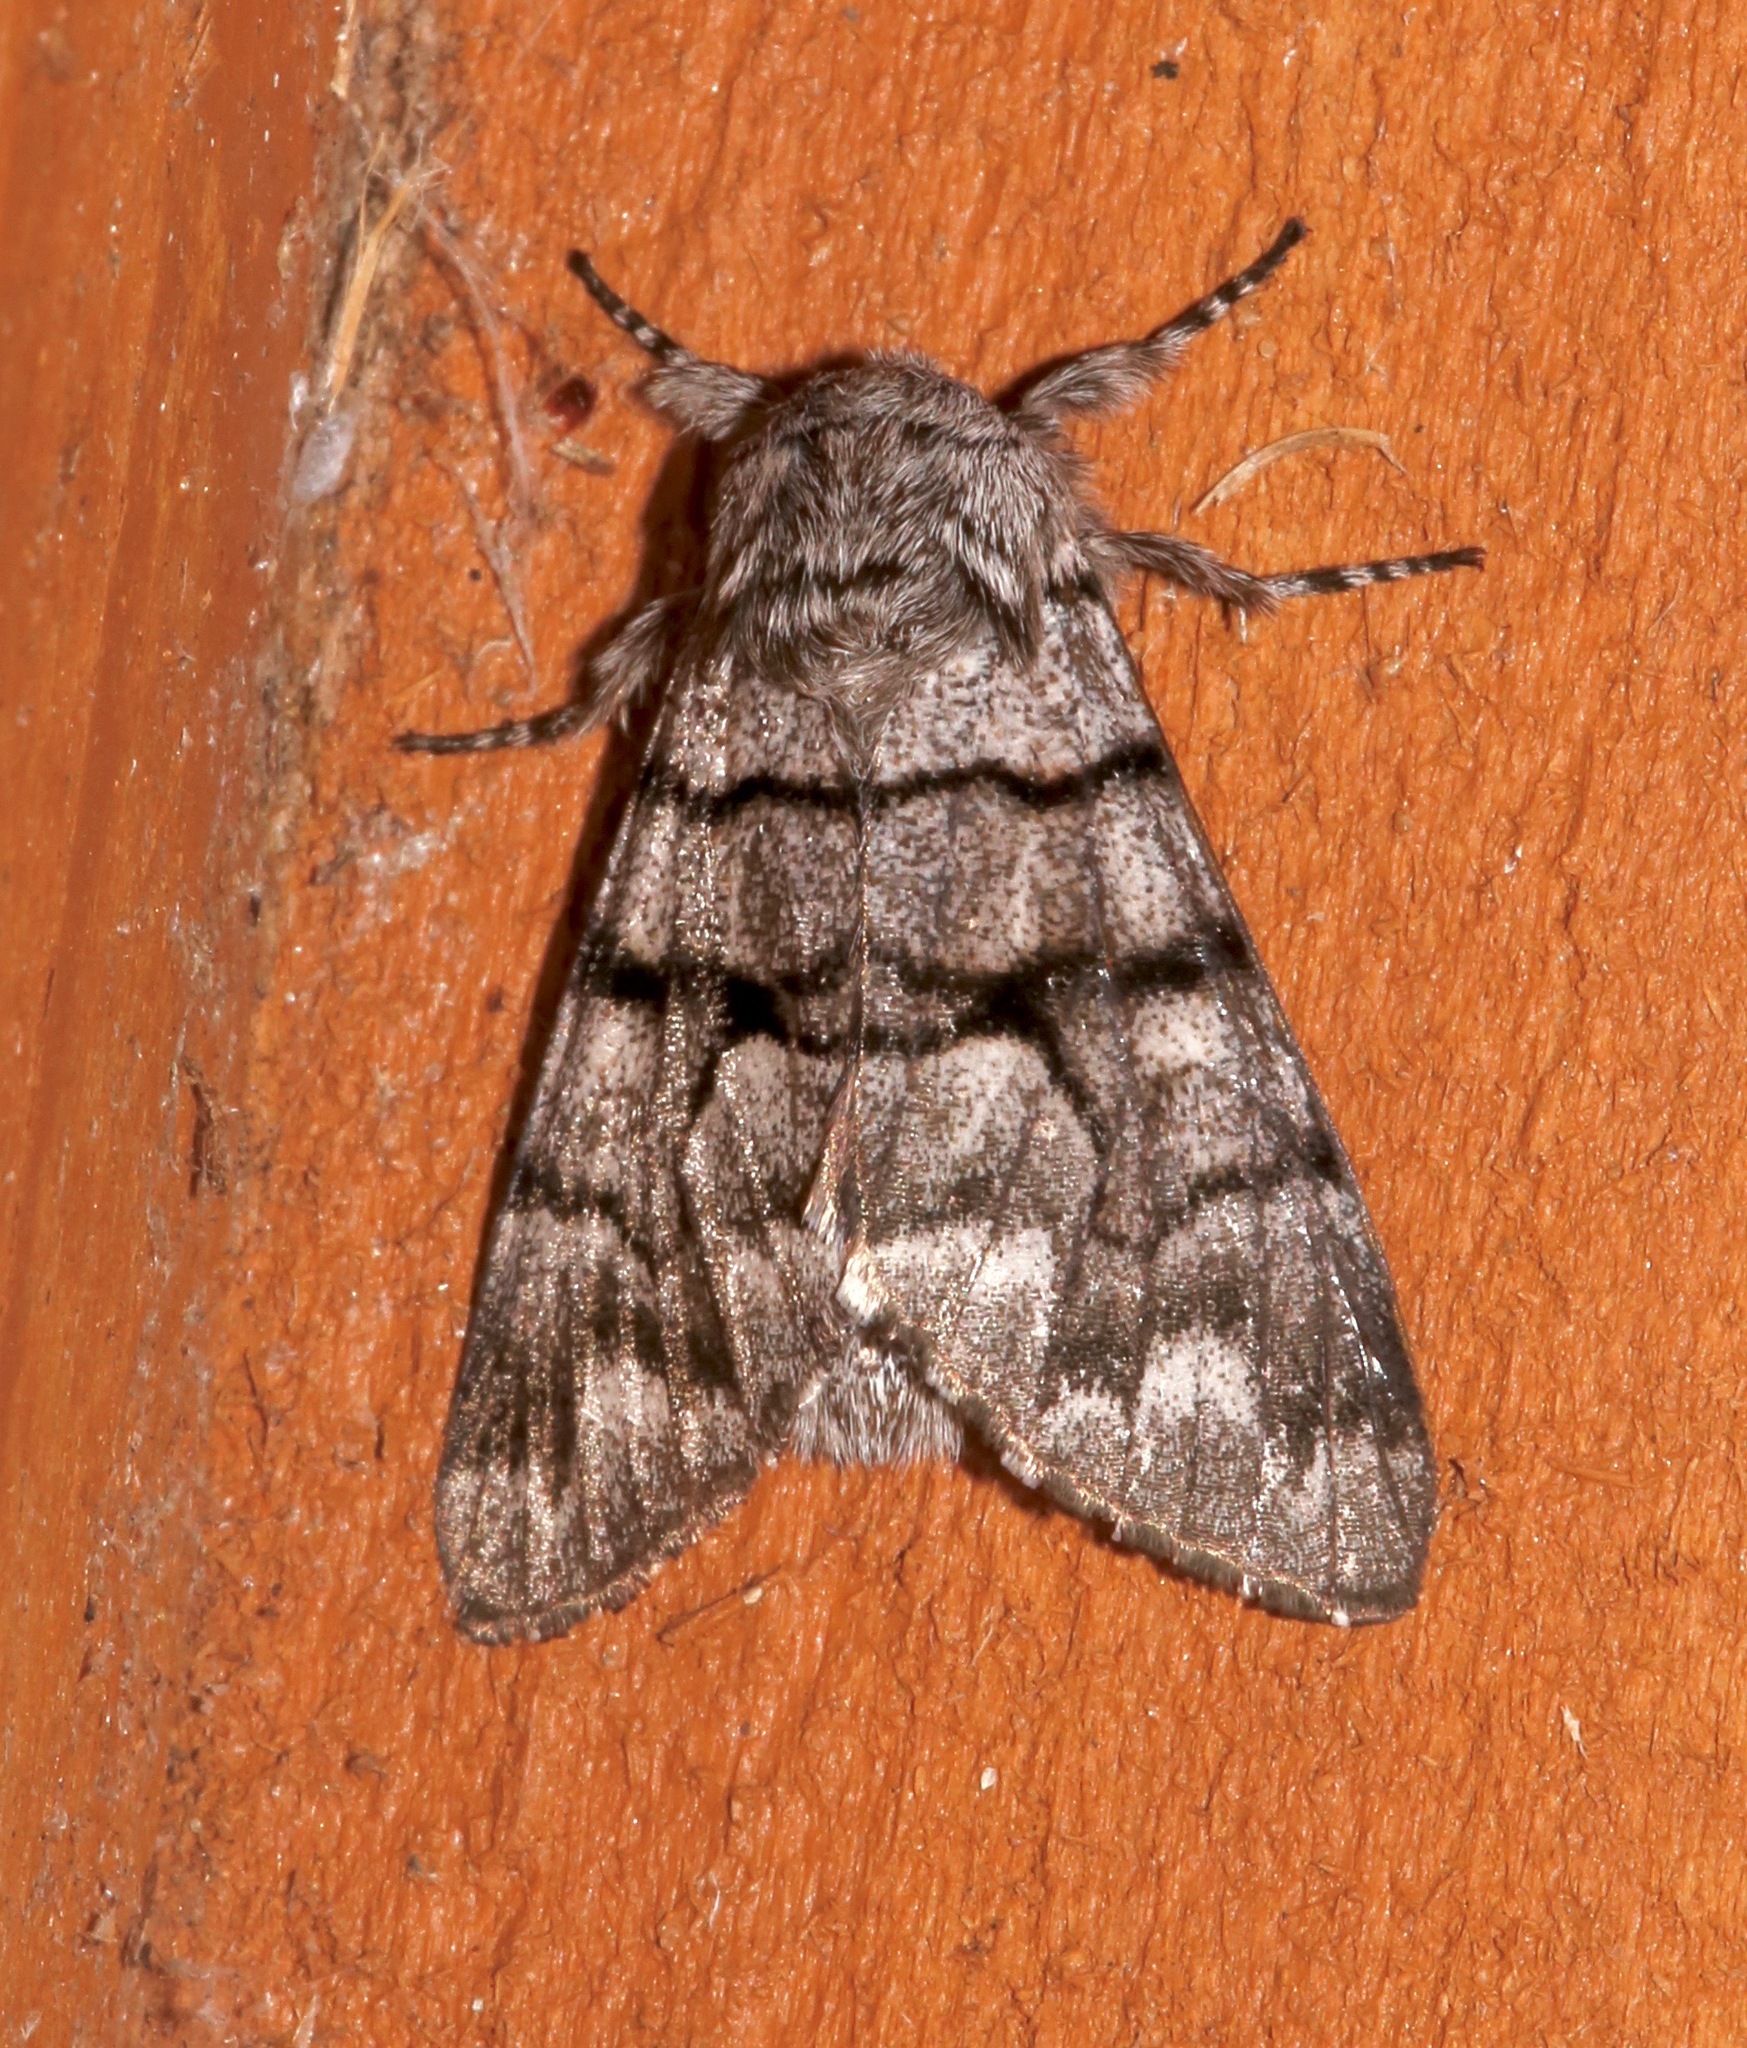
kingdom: Animalia
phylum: Arthropoda
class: Insecta
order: Lepidoptera
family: Noctuidae
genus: Panthea
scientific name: Panthea furcilla
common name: Eastern panthea moth
